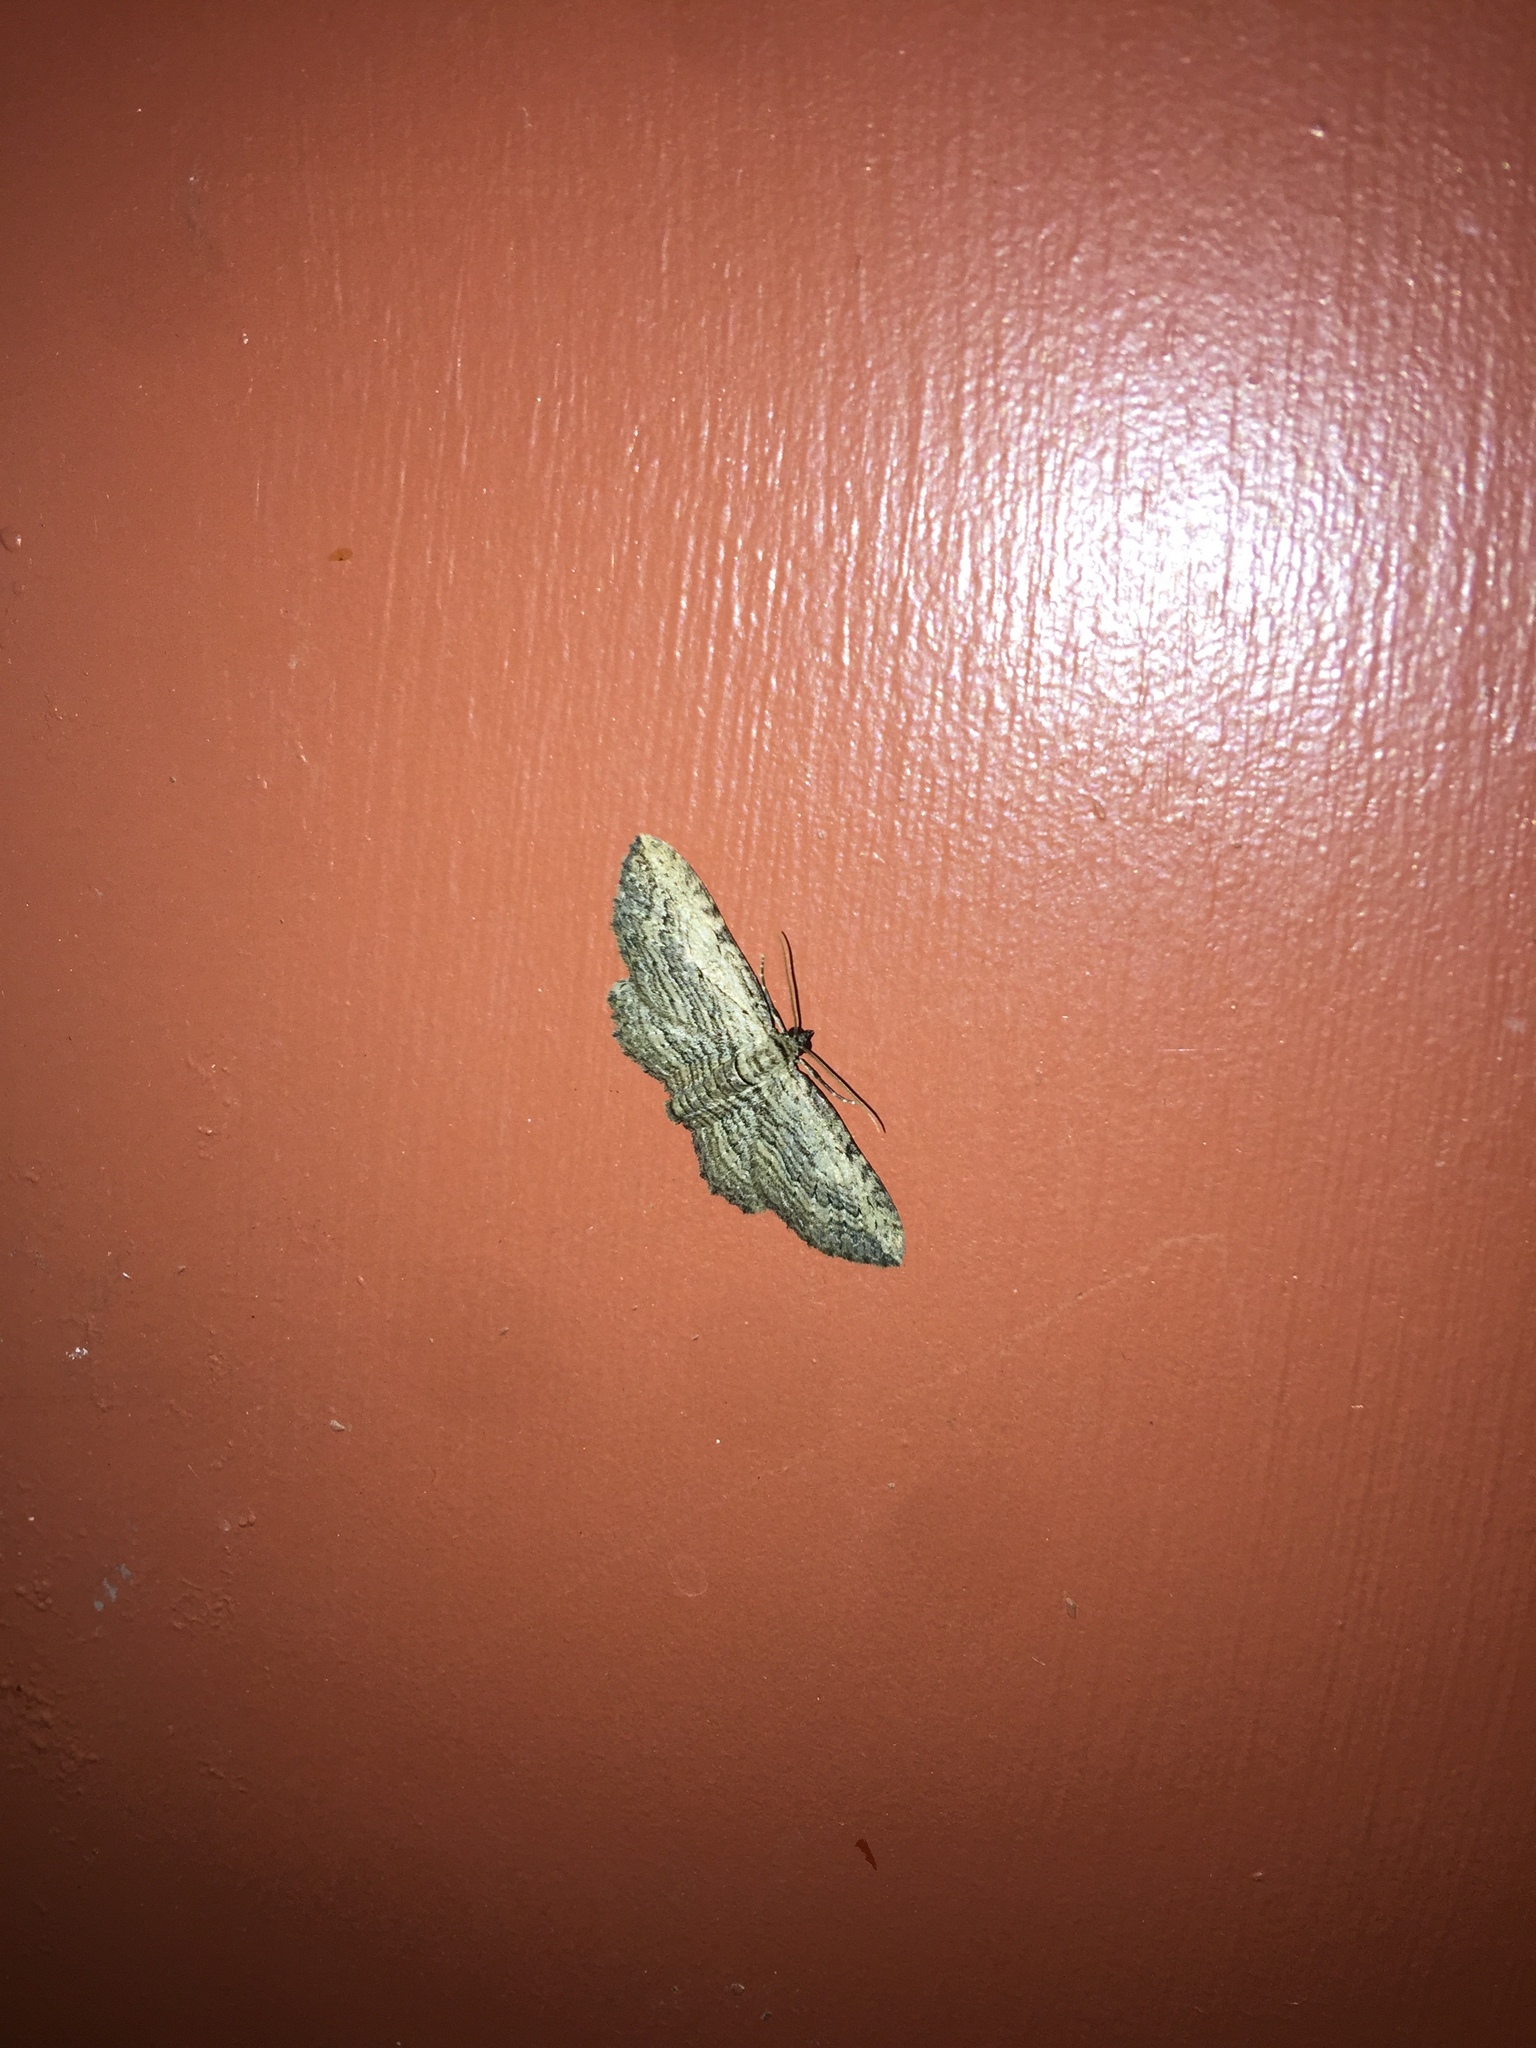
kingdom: Animalia
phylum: Arthropoda
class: Insecta
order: Lepidoptera
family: Geometridae
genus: Horisme
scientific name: Horisme intestinata
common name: Brown bark carpet
